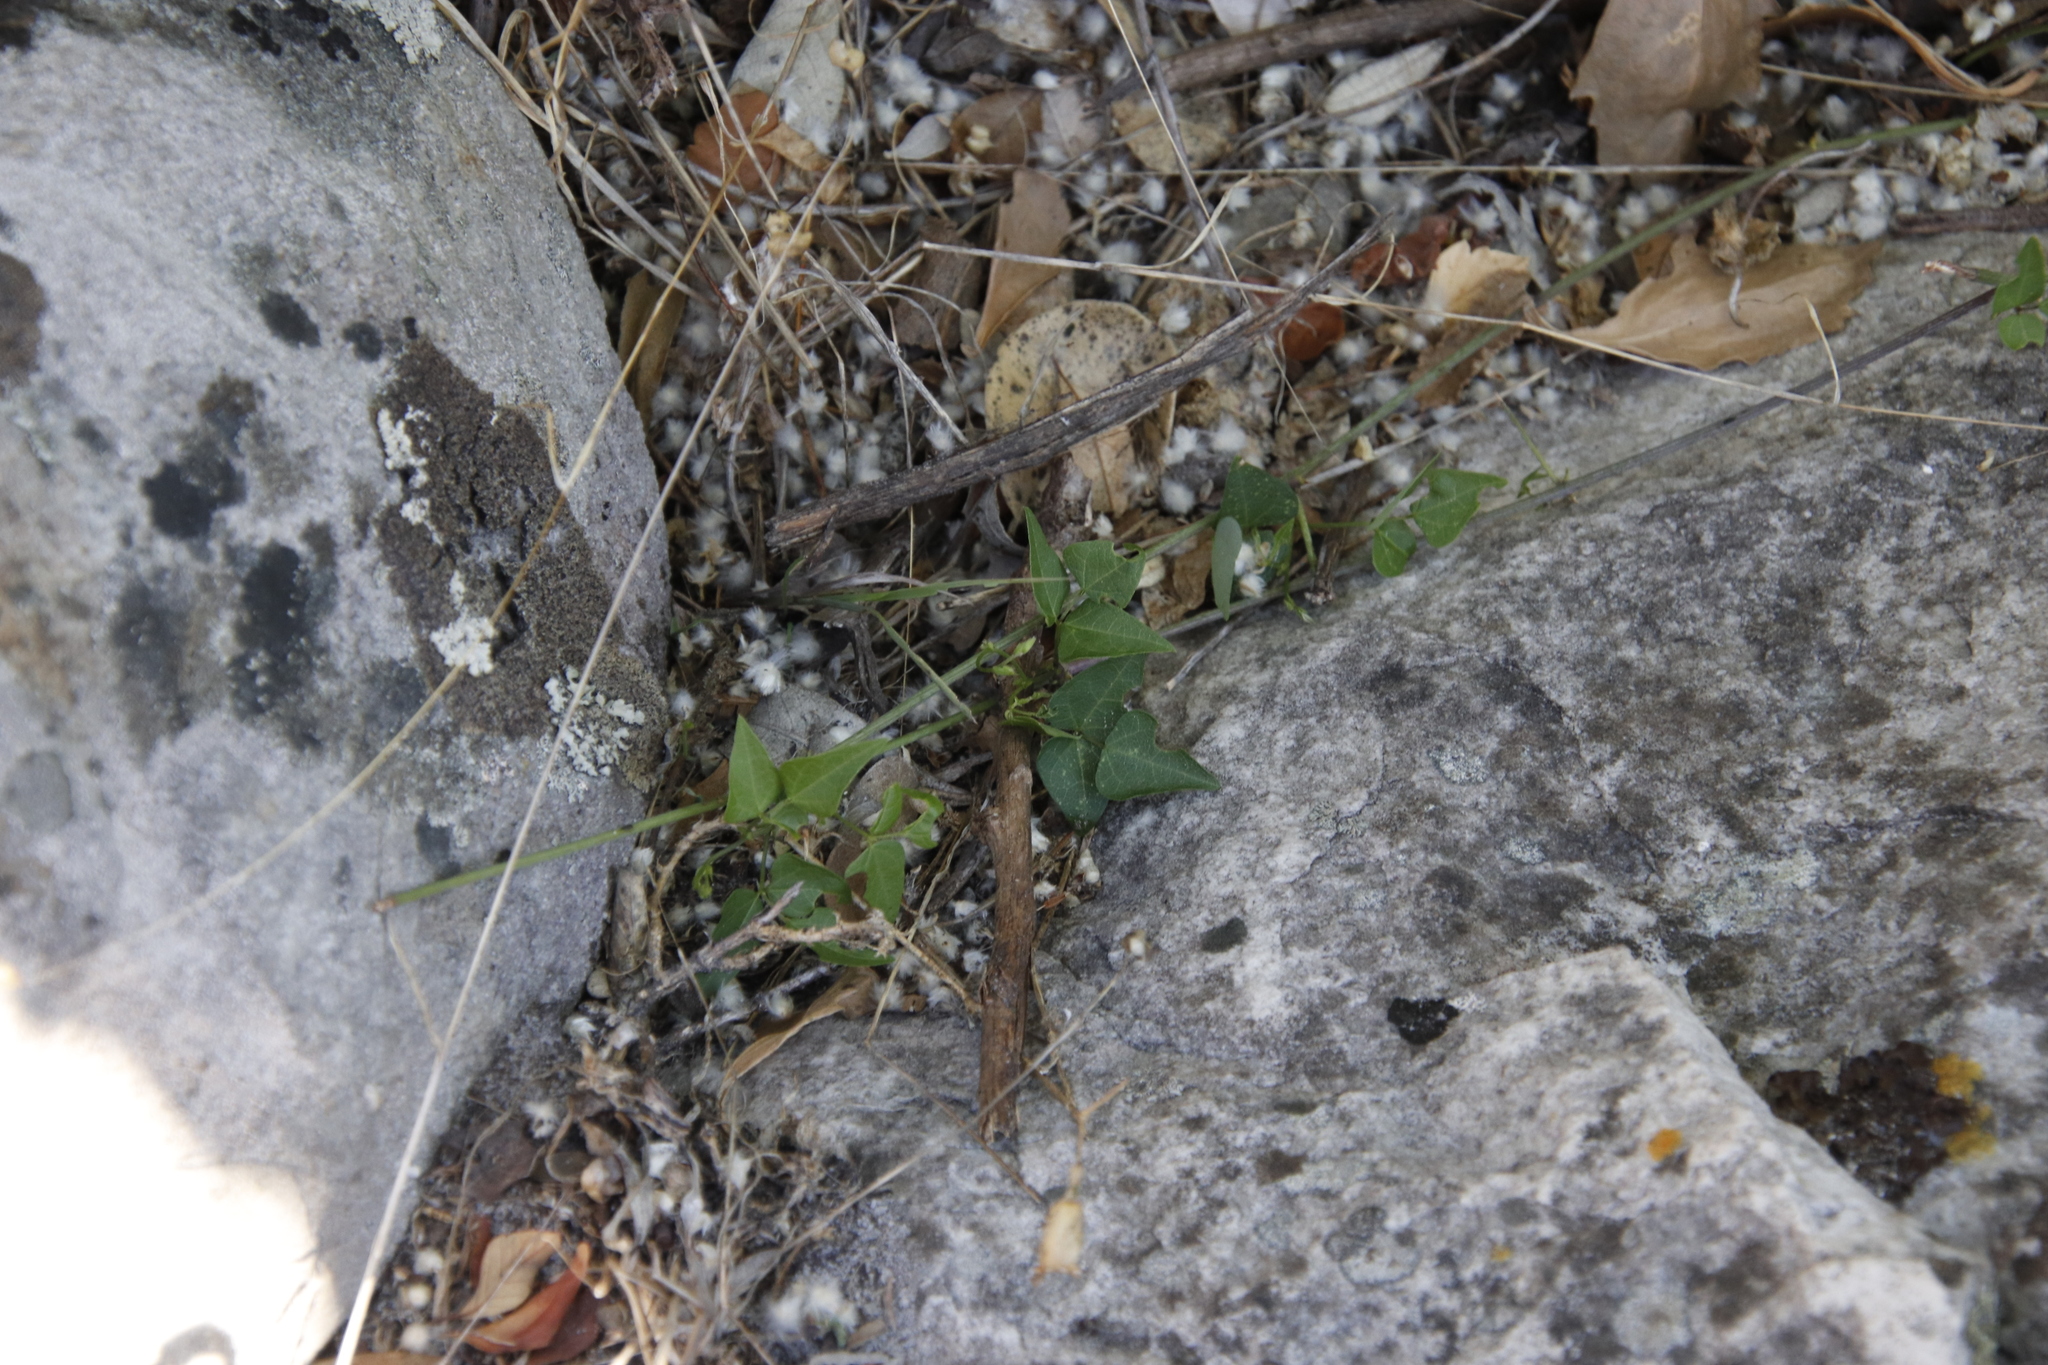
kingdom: Plantae
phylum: Tracheophyta
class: Magnoliopsida
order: Fabales
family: Fabaceae
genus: Dipogon
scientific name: Dipogon lignosus
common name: Okie bean
